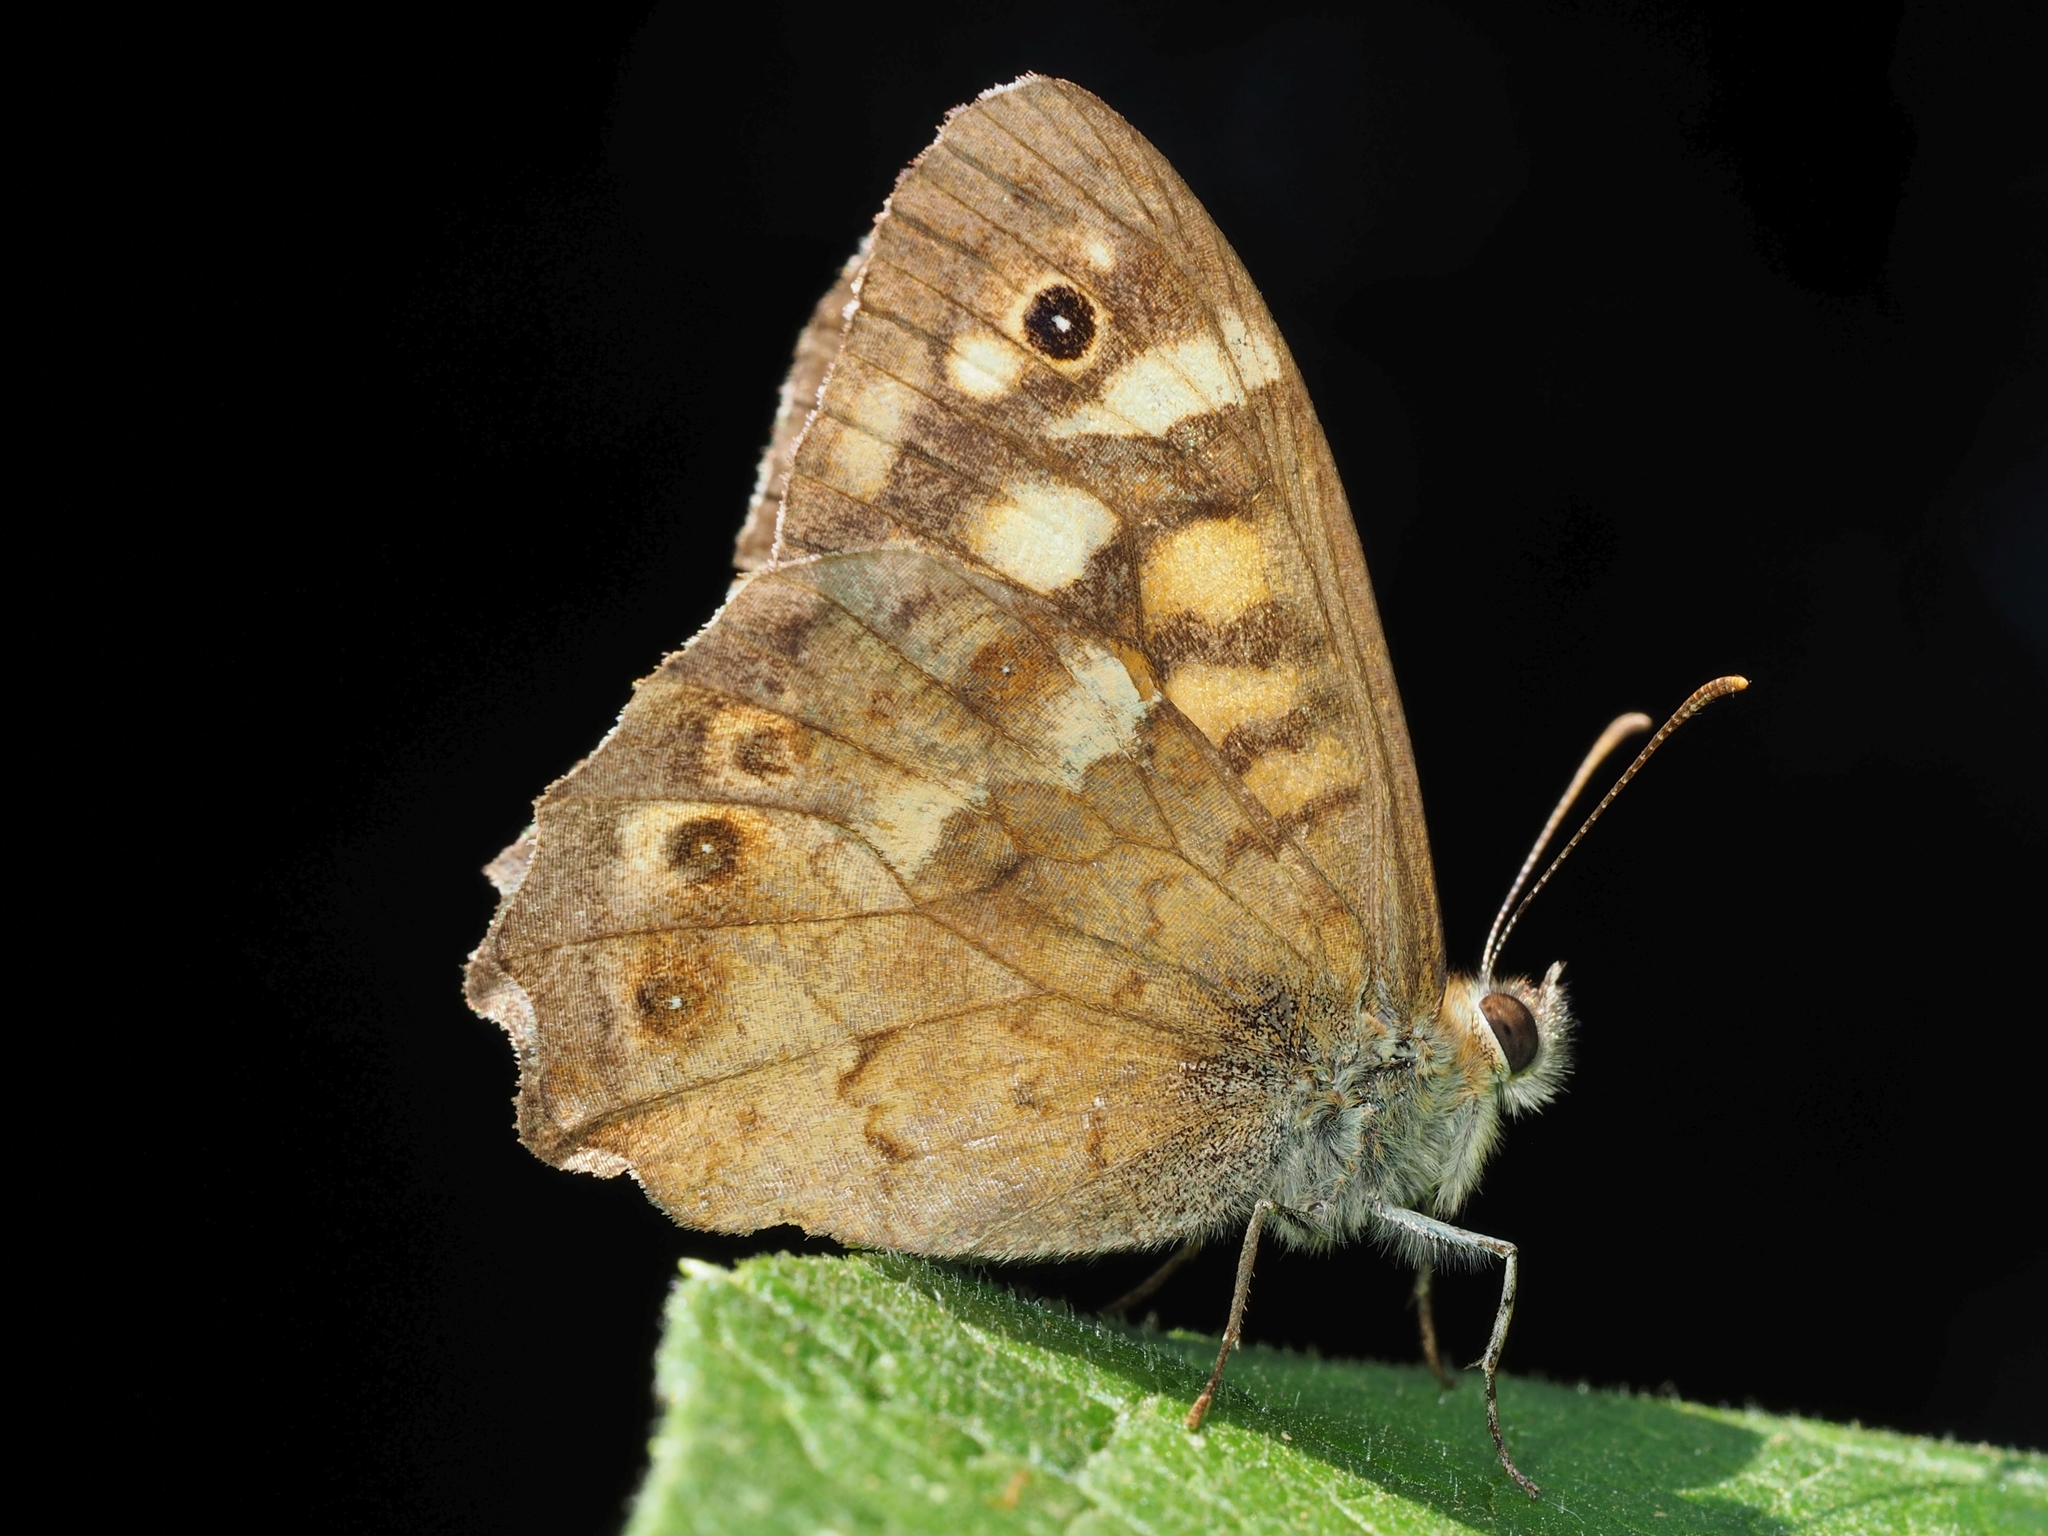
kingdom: Animalia
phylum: Arthropoda
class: Insecta
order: Lepidoptera
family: Nymphalidae
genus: Pararge
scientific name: Pararge aegeria
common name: Speckled wood
